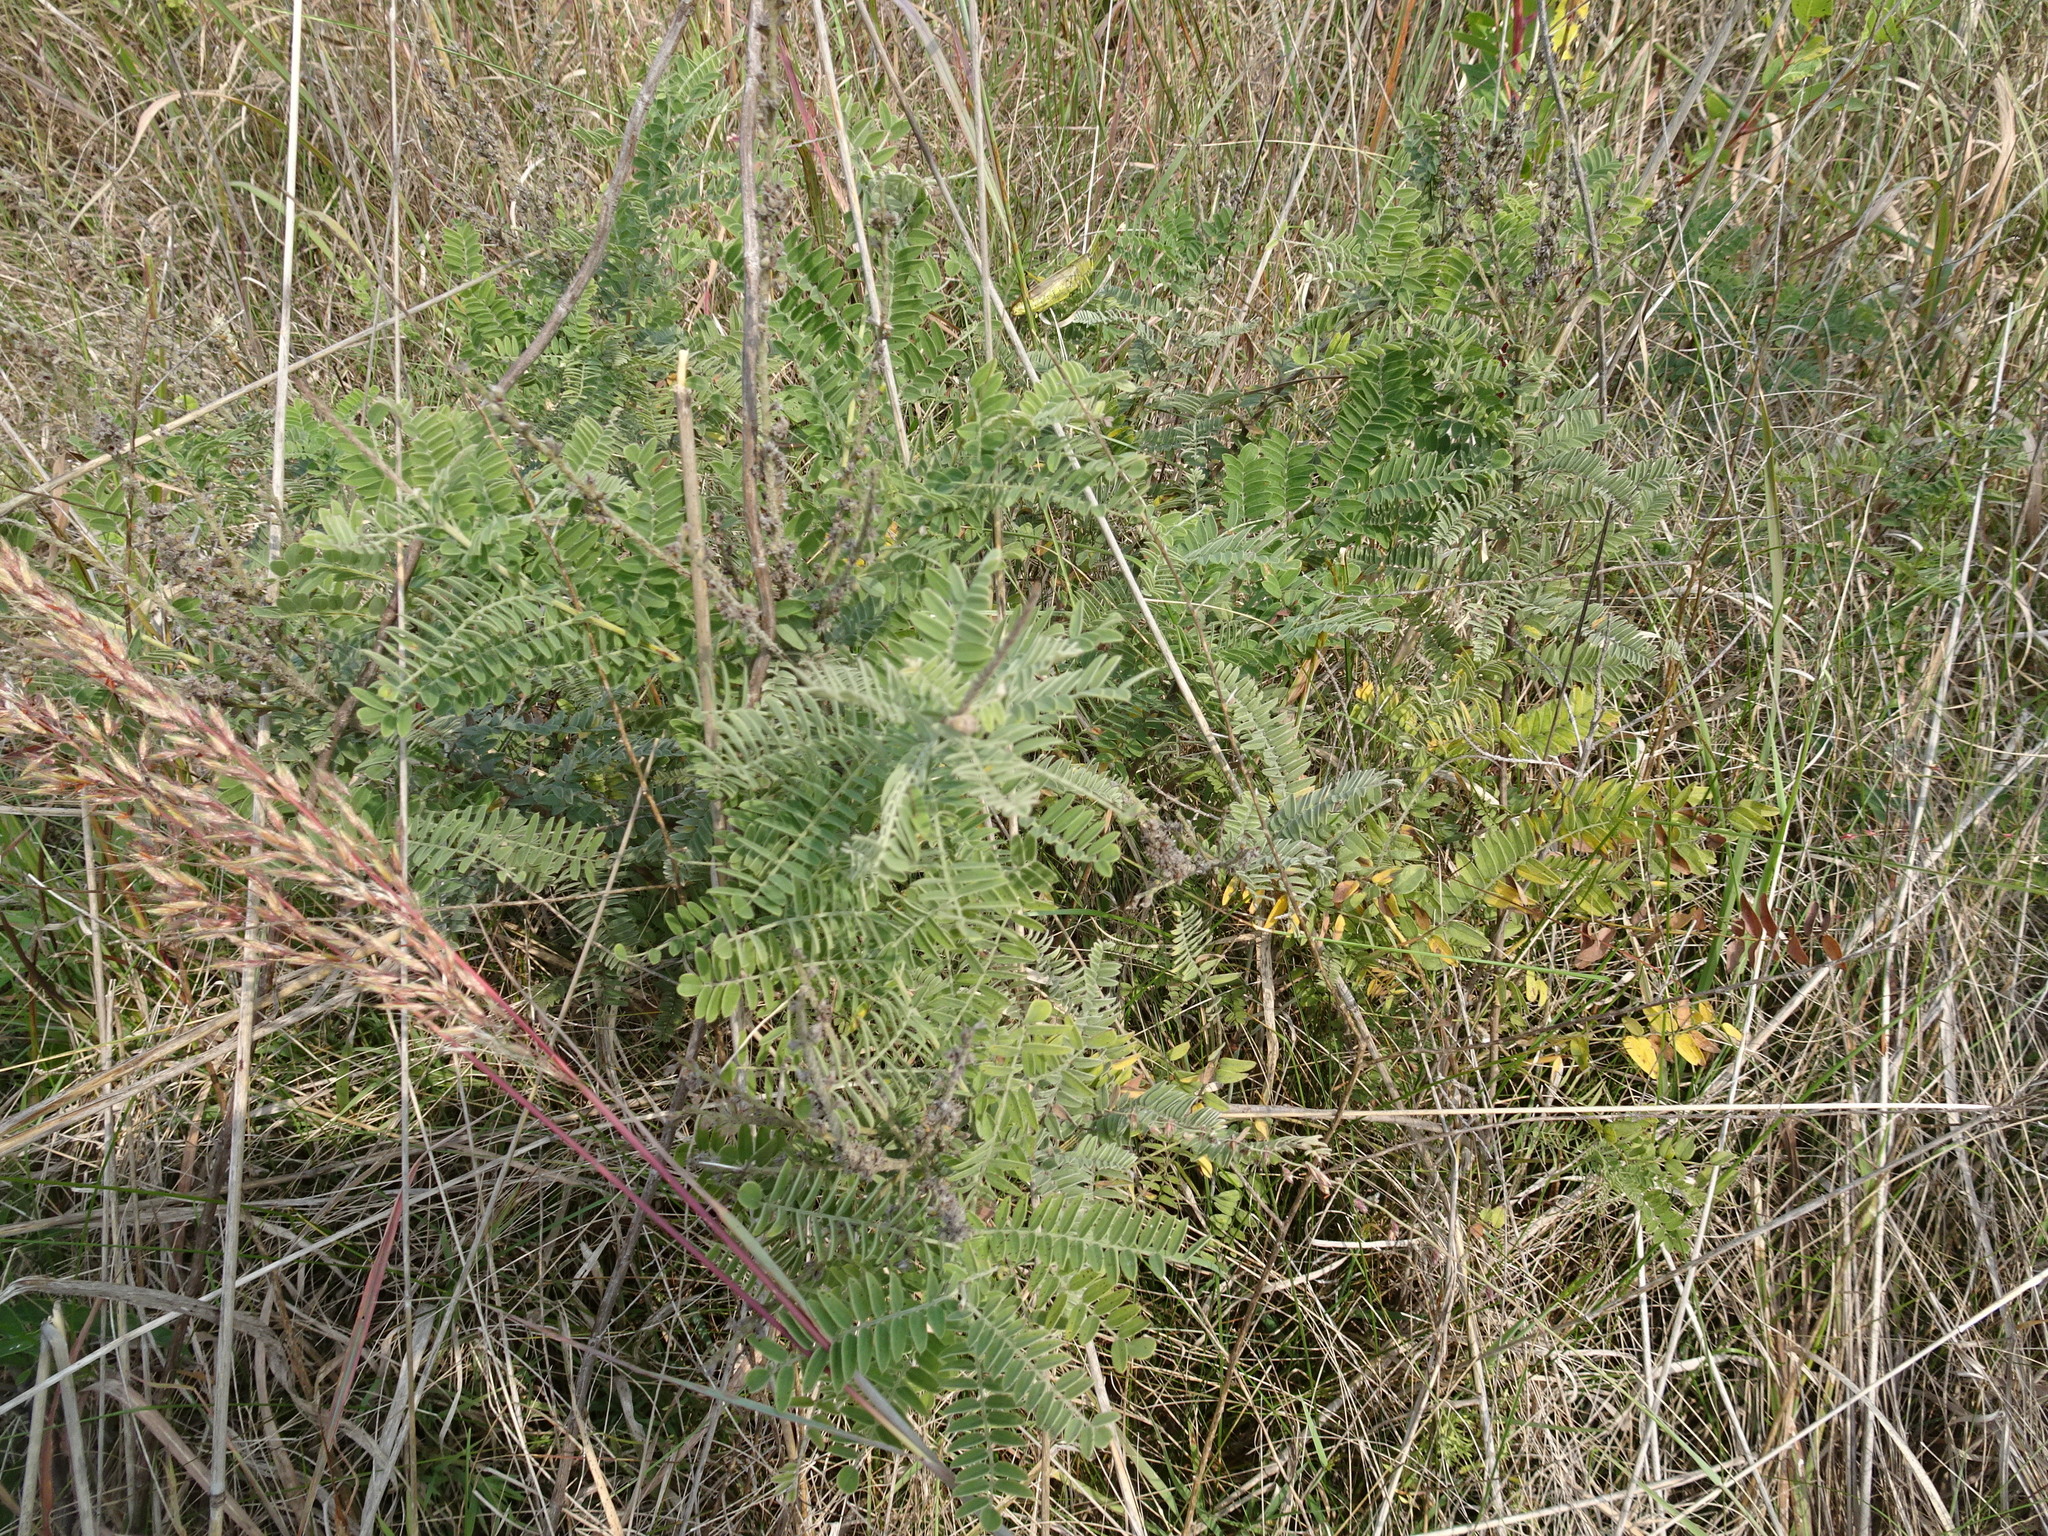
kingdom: Plantae
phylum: Tracheophyta
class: Magnoliopsida
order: Fabales
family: Fabaceae
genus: Amorpha
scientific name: Amorpha canescens
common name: Leadplant
